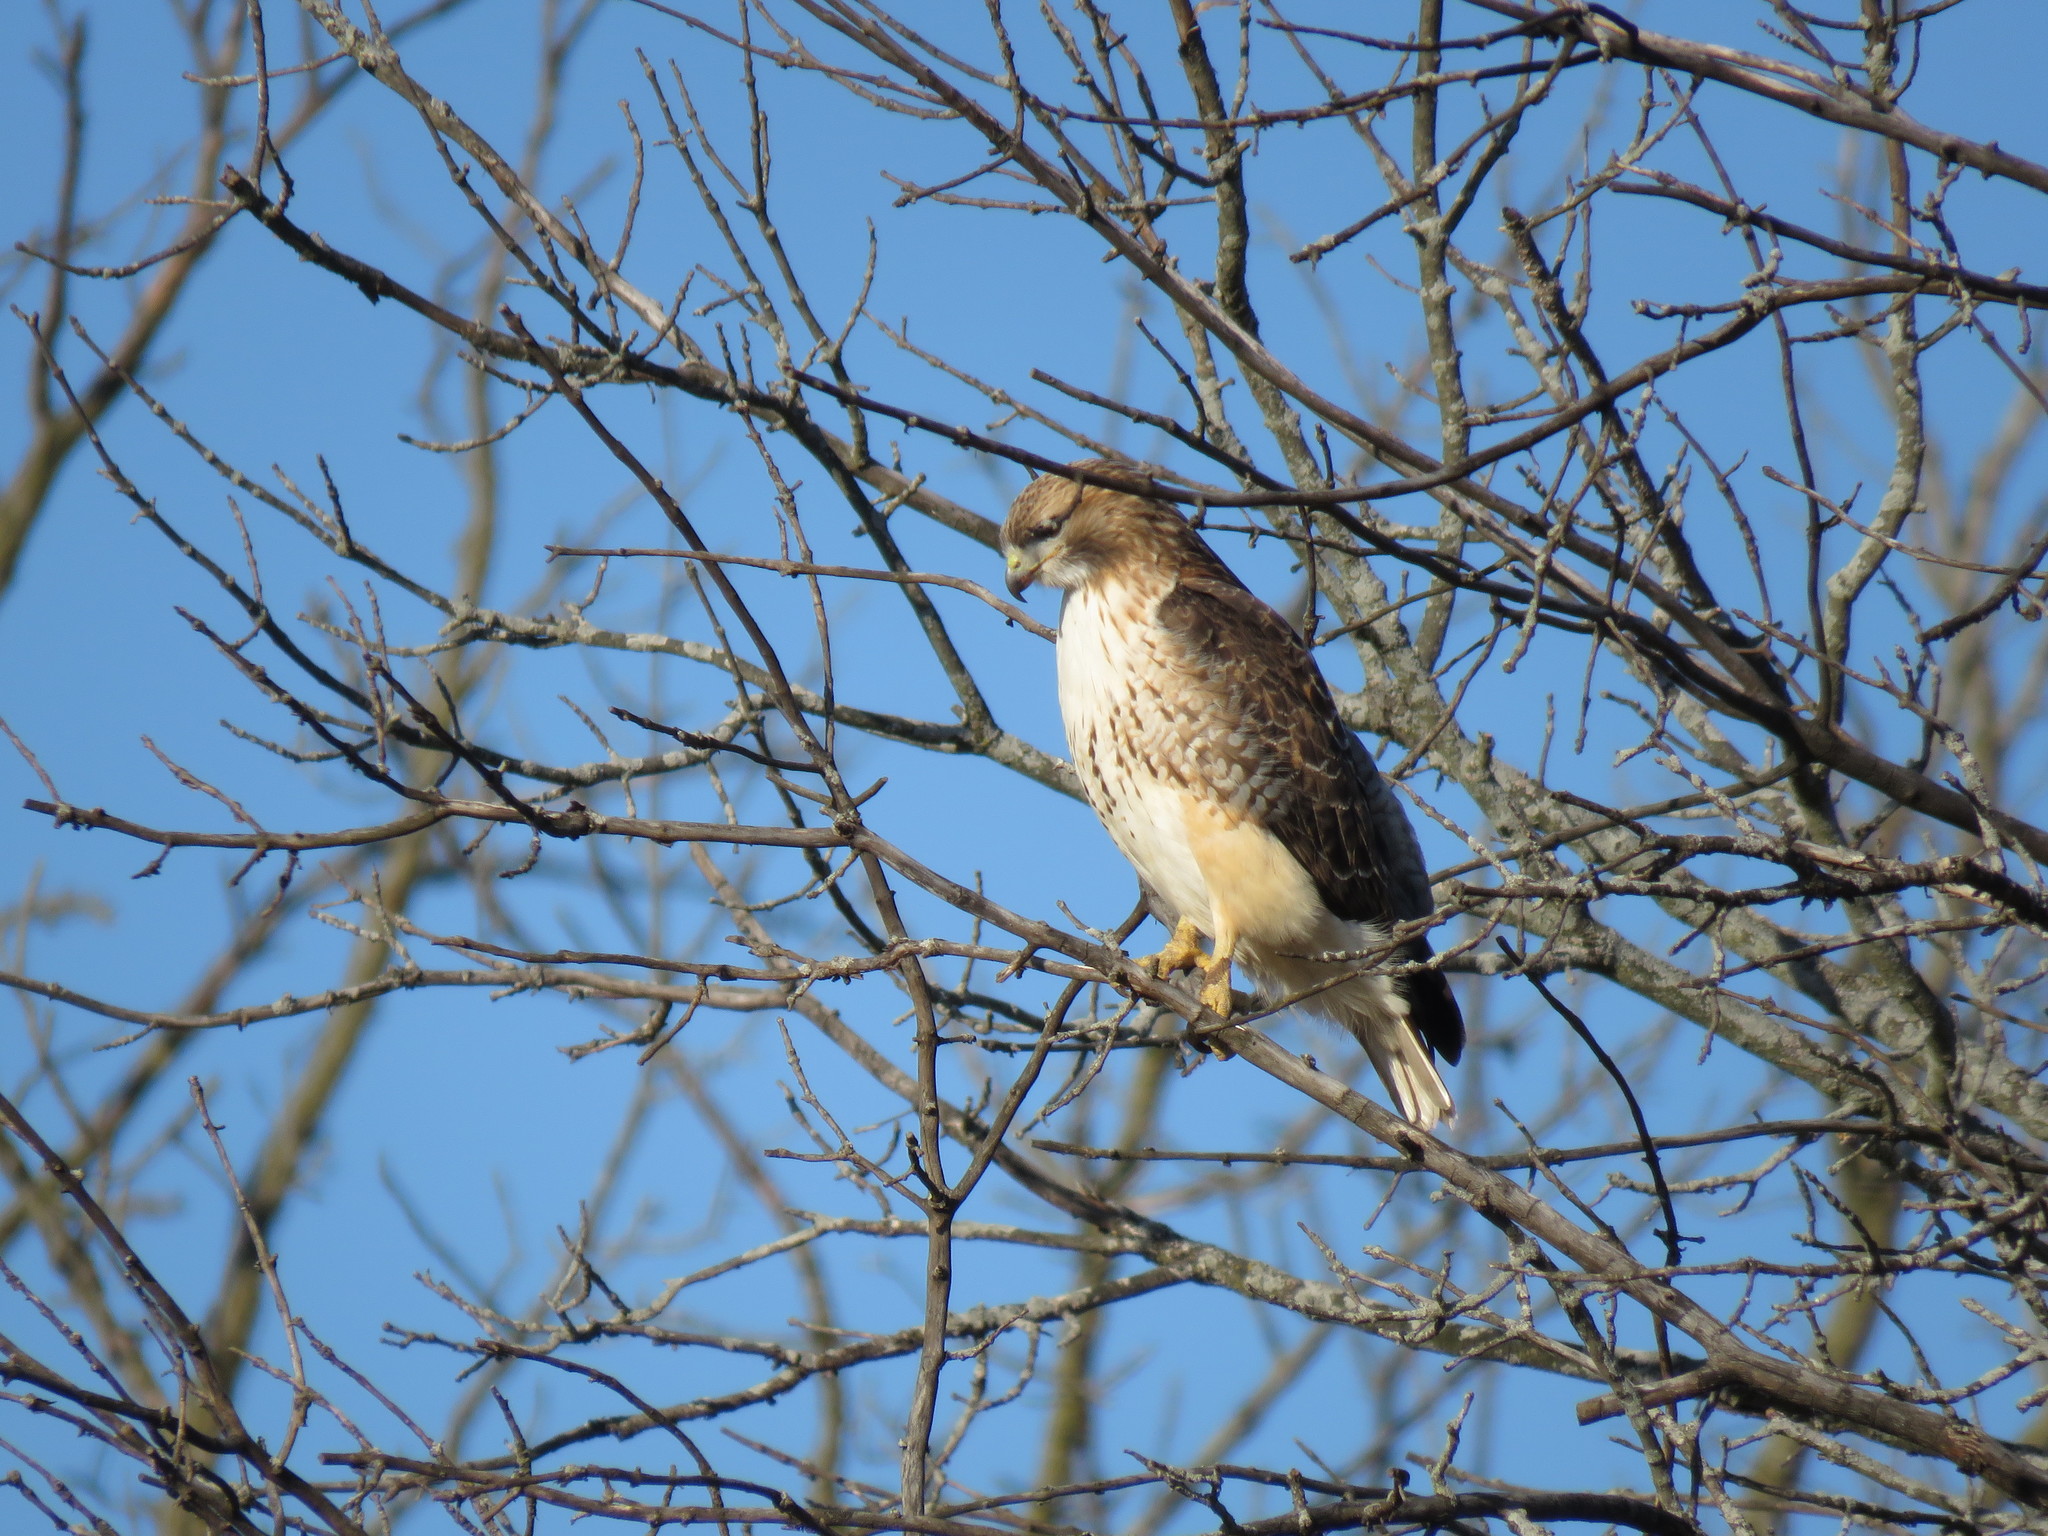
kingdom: Animalia
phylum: Chordata
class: Aves
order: Accipitriformes
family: Accipitridae
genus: Buteo
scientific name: Buteo jamaicensis
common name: Red-tailed hawk
